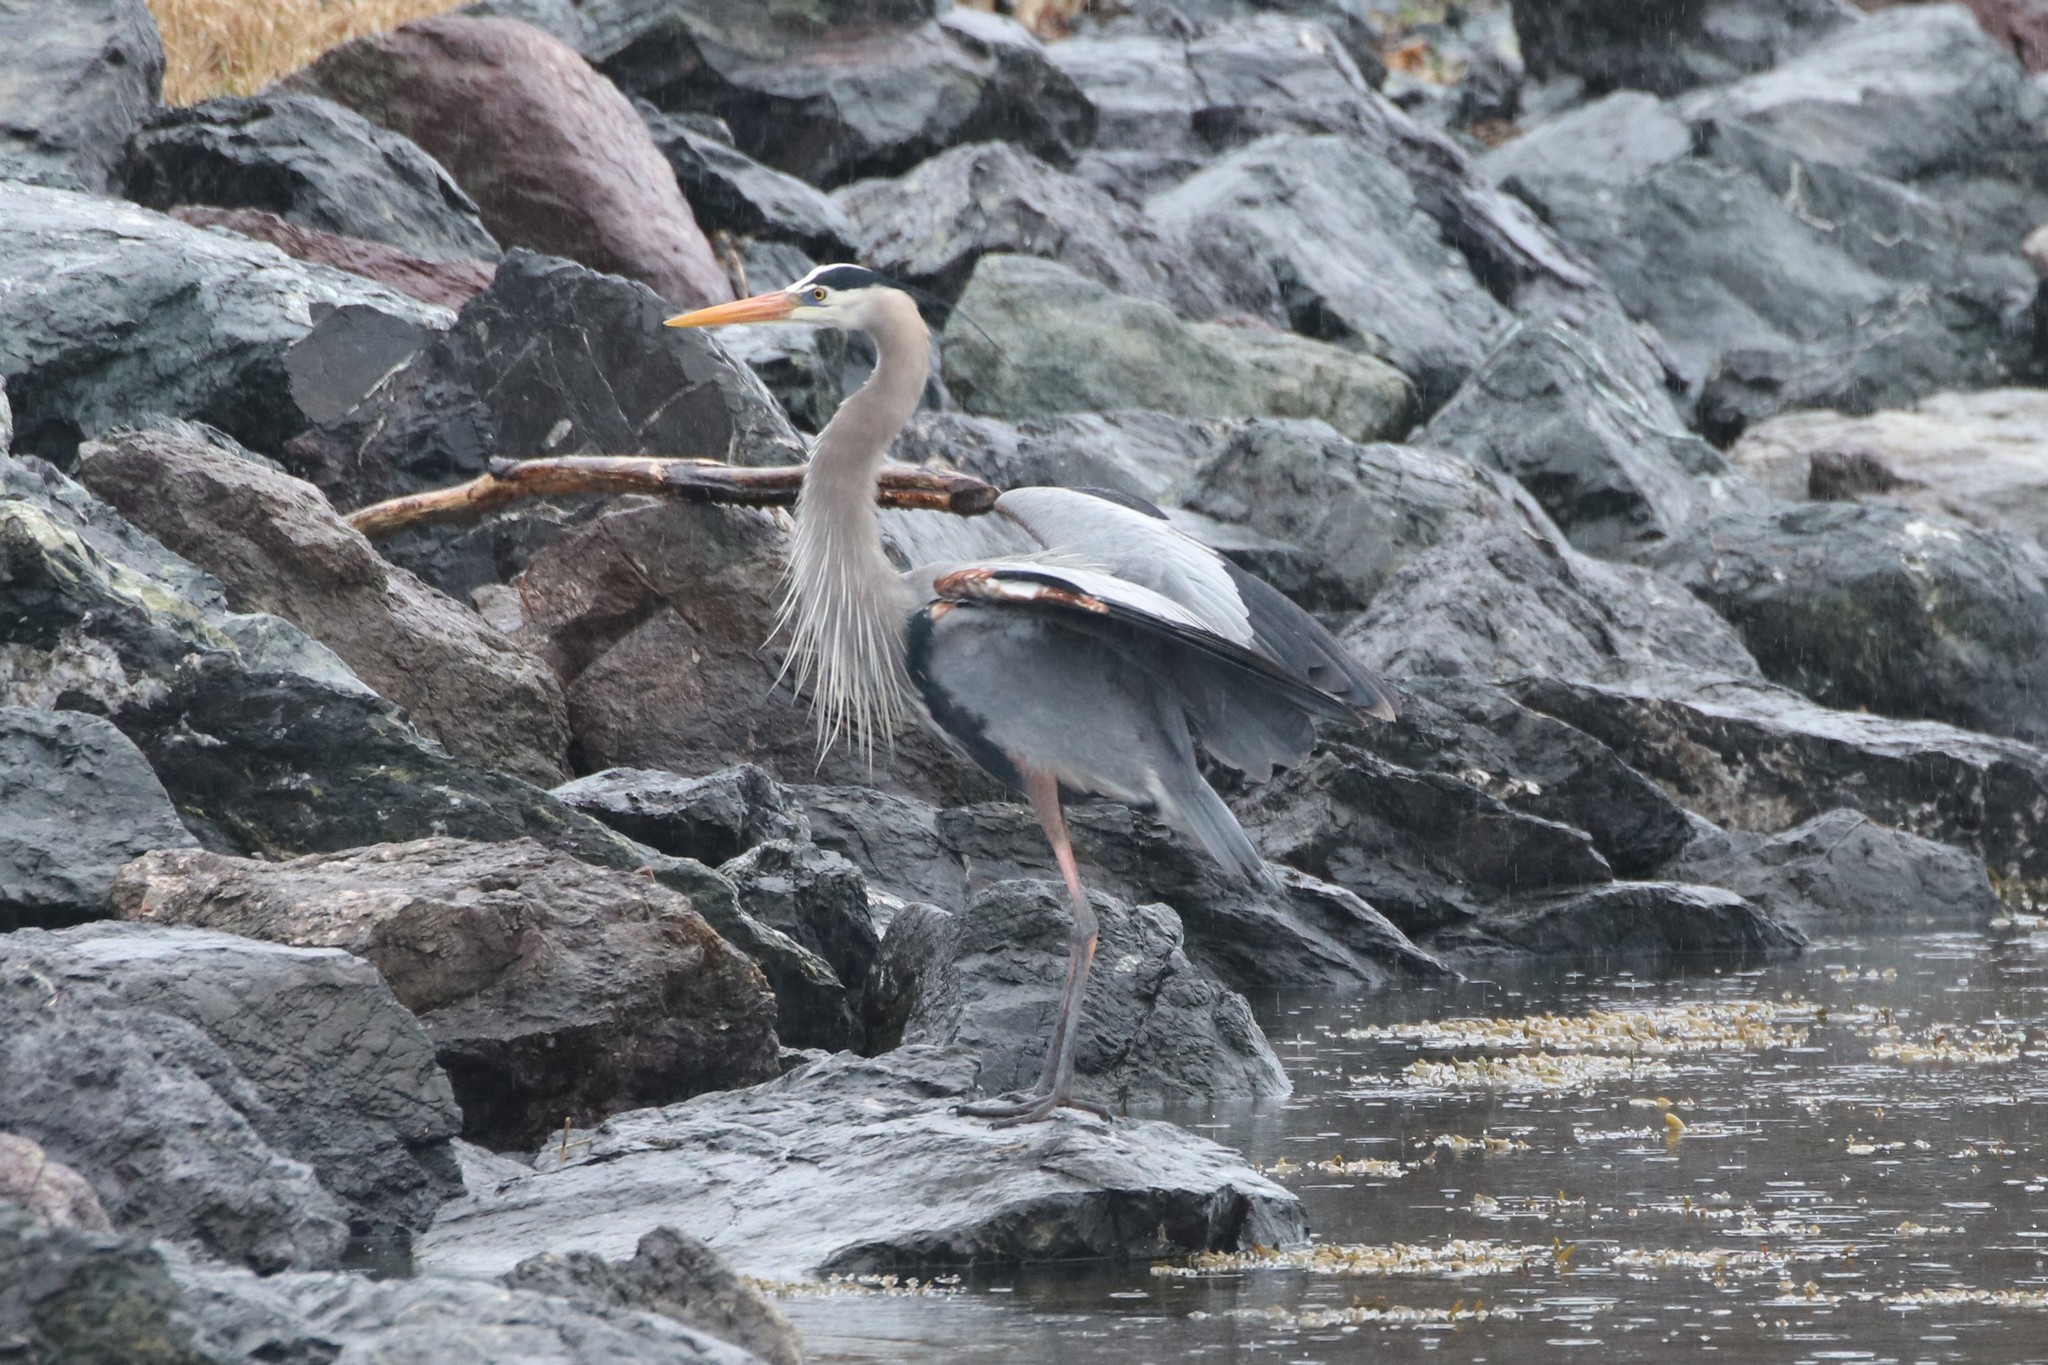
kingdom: Animalia
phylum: Chordata
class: Aves
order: Pelecaniformes
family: Ardeidae
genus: Ardea
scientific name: Ardea herodias
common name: Great blue heron
